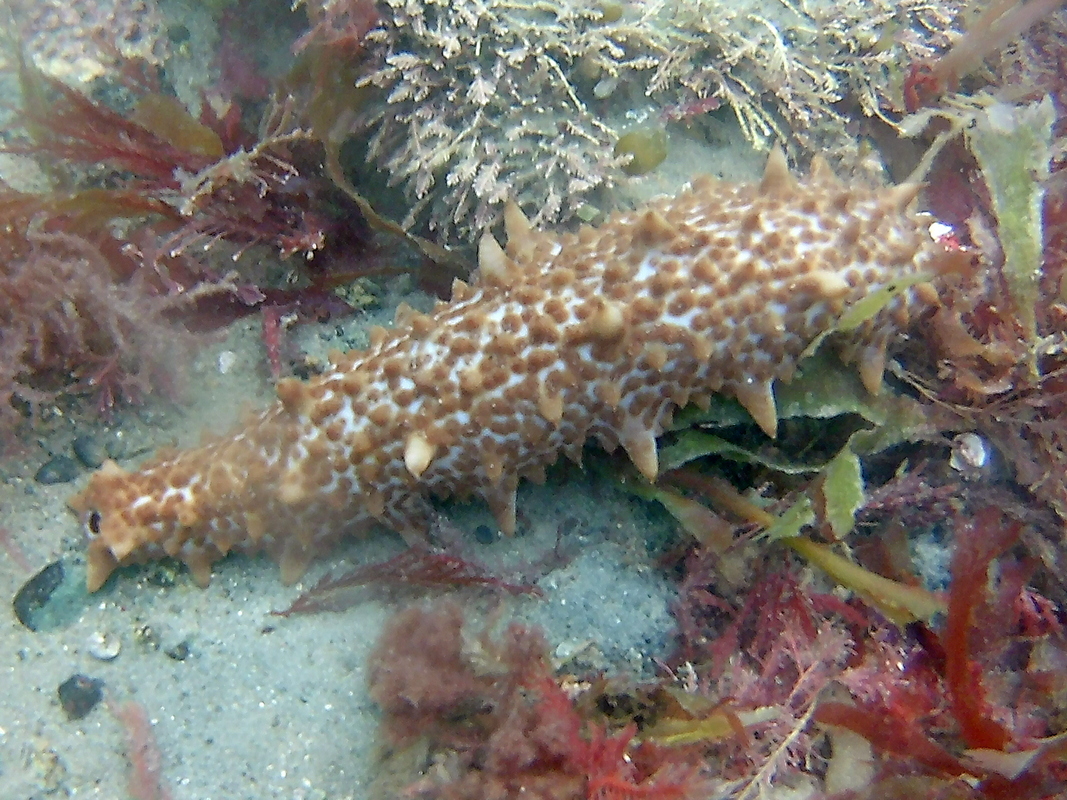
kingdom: Animalia
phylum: Echinodermata
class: Holothuroidea
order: Synallactida
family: Stichopodidae
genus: Australostichopus
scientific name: Australostichopus mollis
